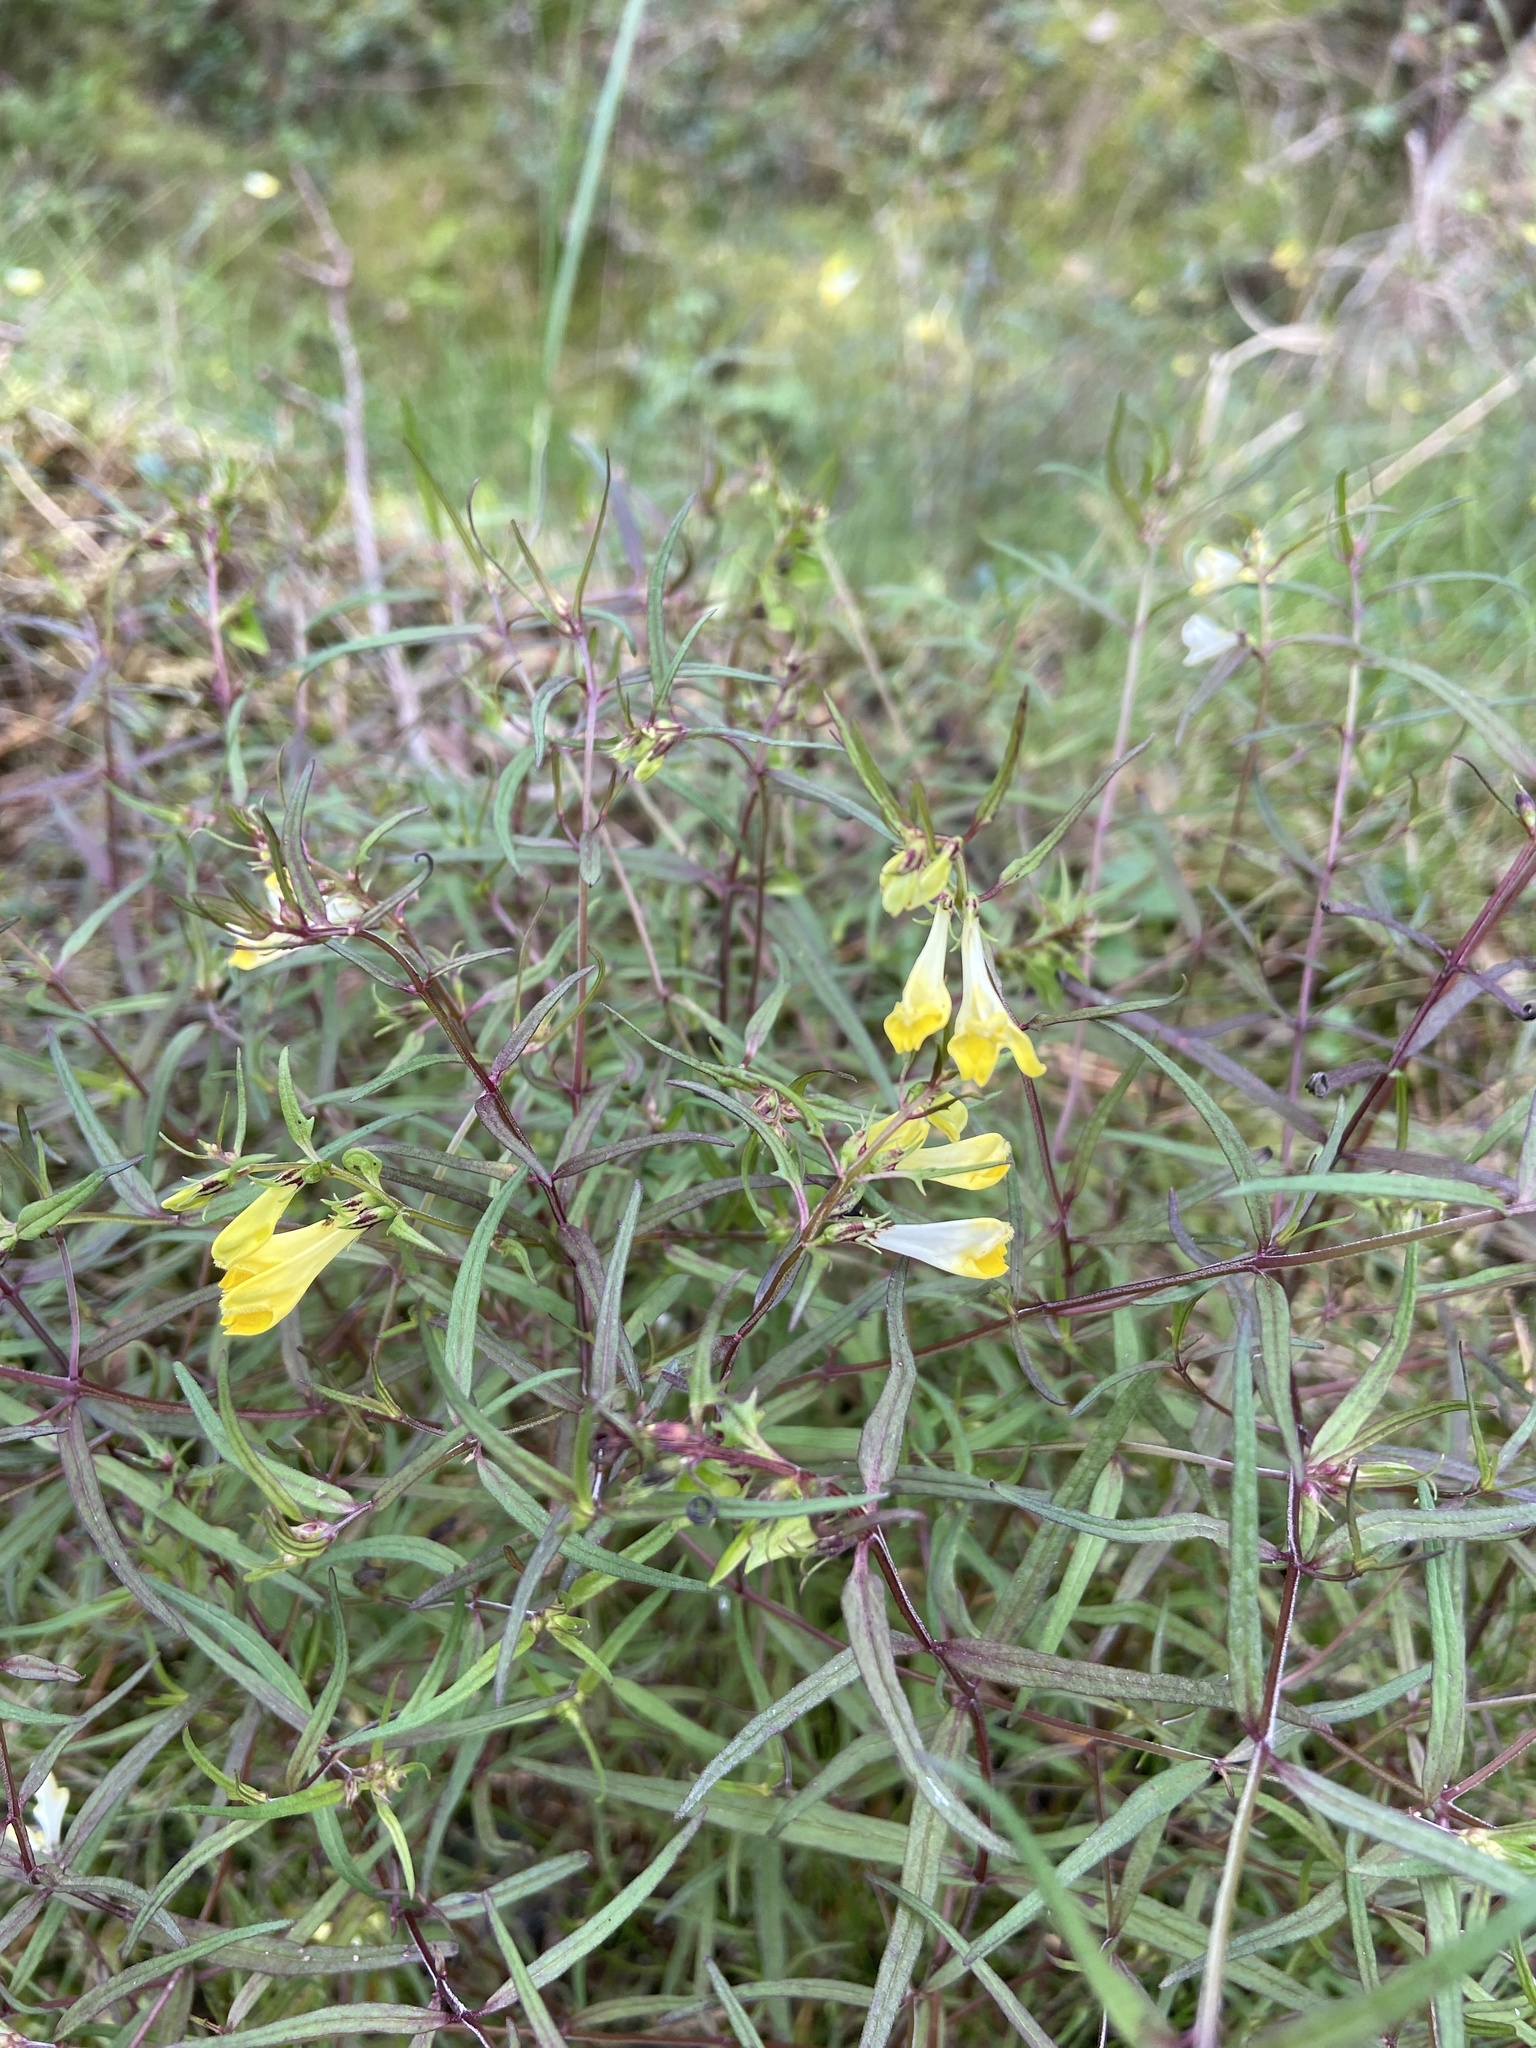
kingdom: Plantae
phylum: Tracheophyta
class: Magnoliopsida
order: Lamiales
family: Orobanchaceae
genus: Melampyrum
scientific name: Melampyrum pratense
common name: Common cow-wheat
